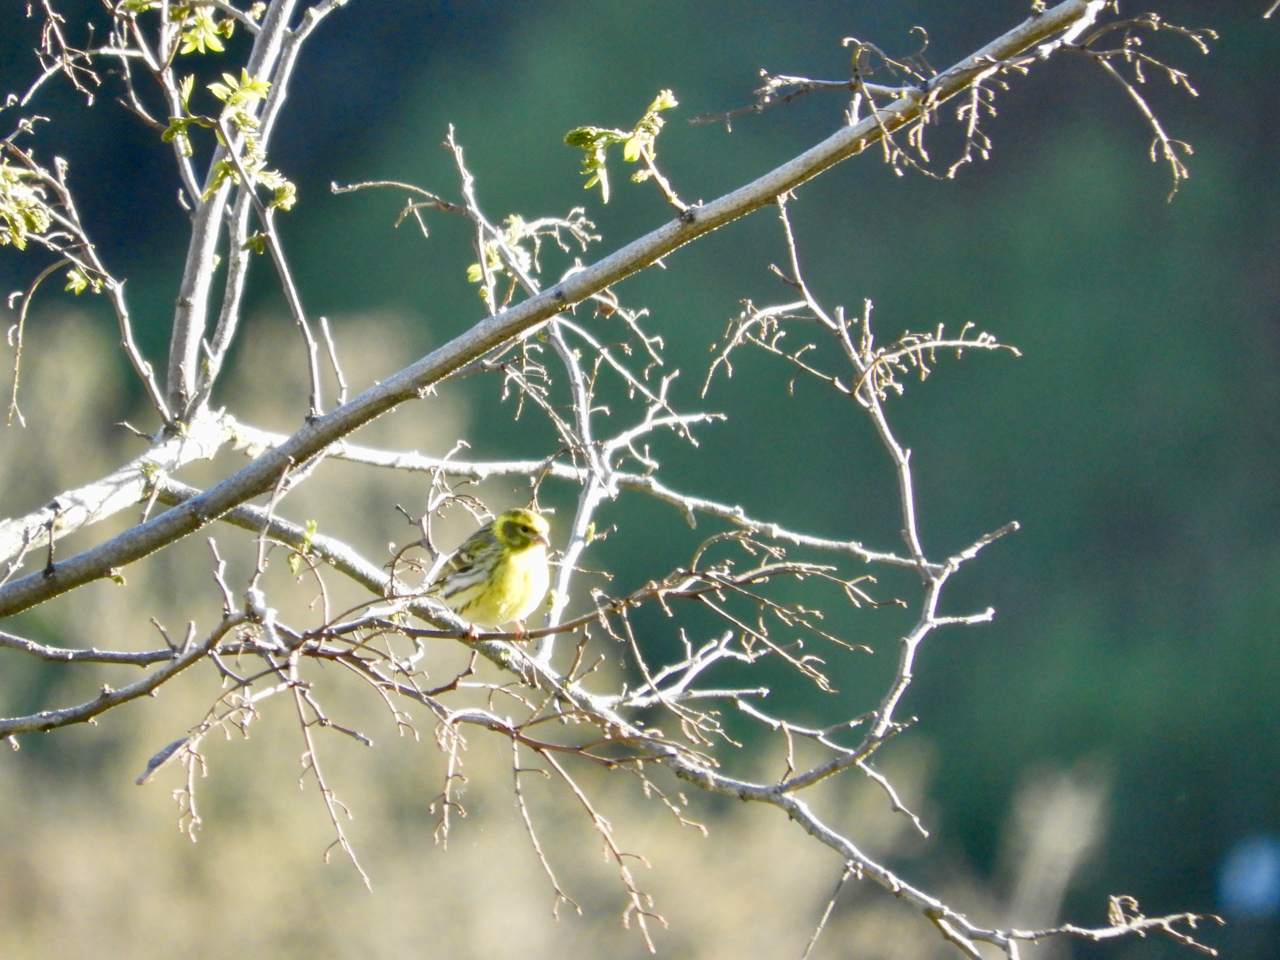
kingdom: Animalia
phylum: Chordata
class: Aves
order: Passeriformes
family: Fringillidae
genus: Serinus
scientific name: Serinus serinus
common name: European serin
